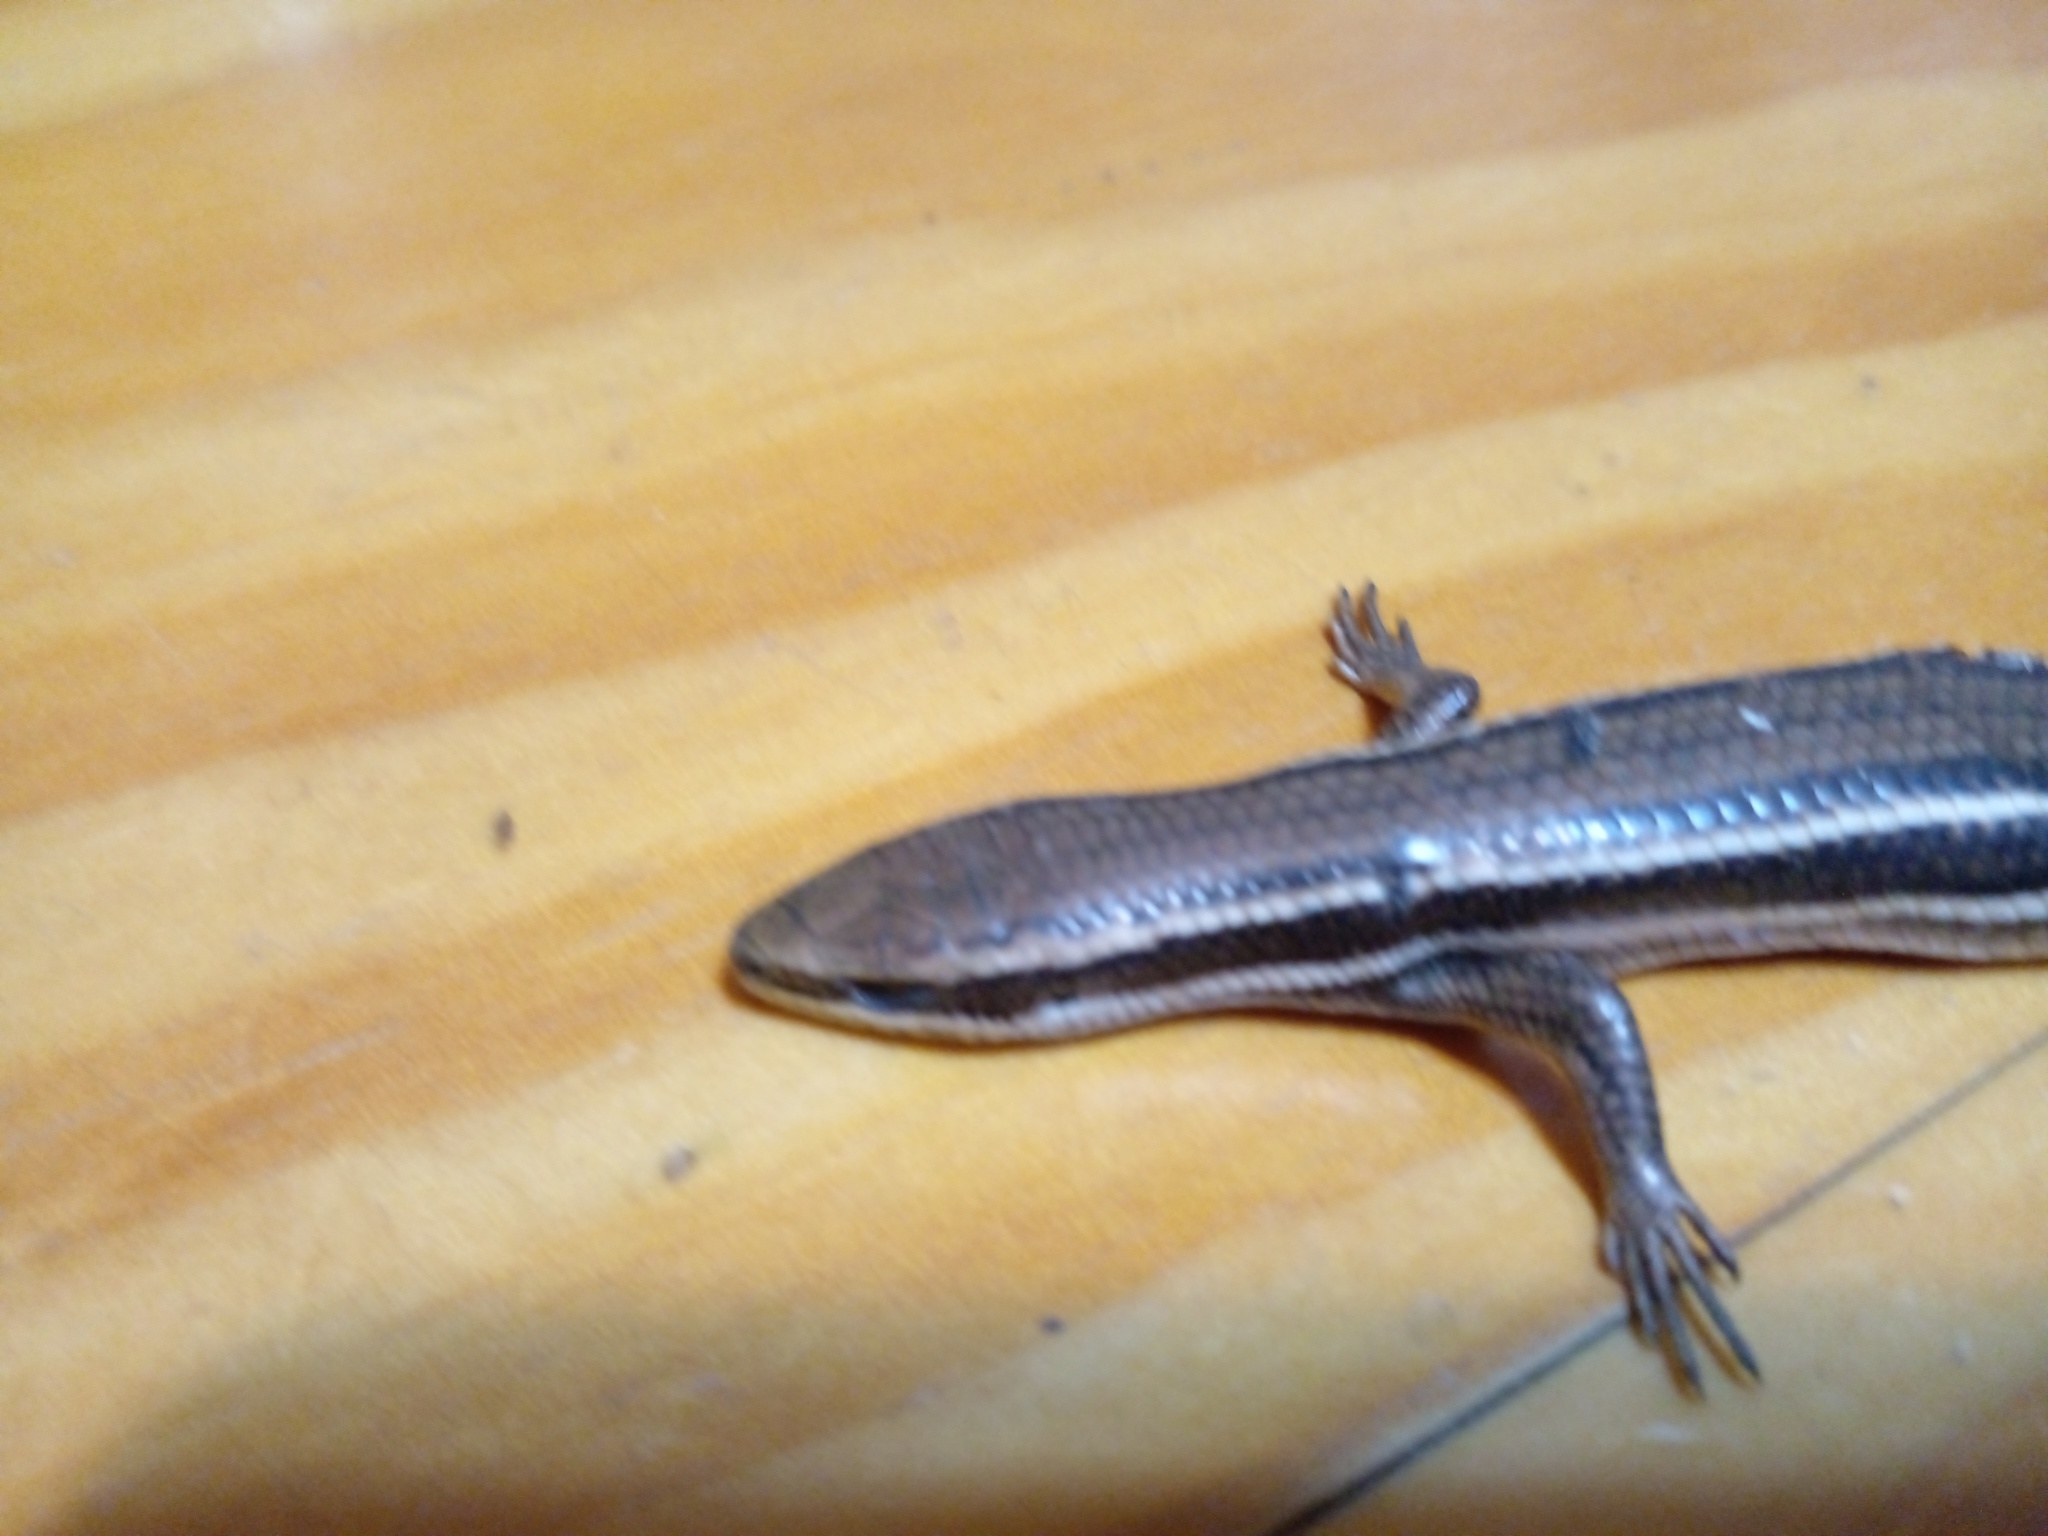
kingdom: Animalia
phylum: Chordata
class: Squamata
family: Scincidae
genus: Aspronema
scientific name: Aspronema dorsivittatum
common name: Paraguay mabuya
